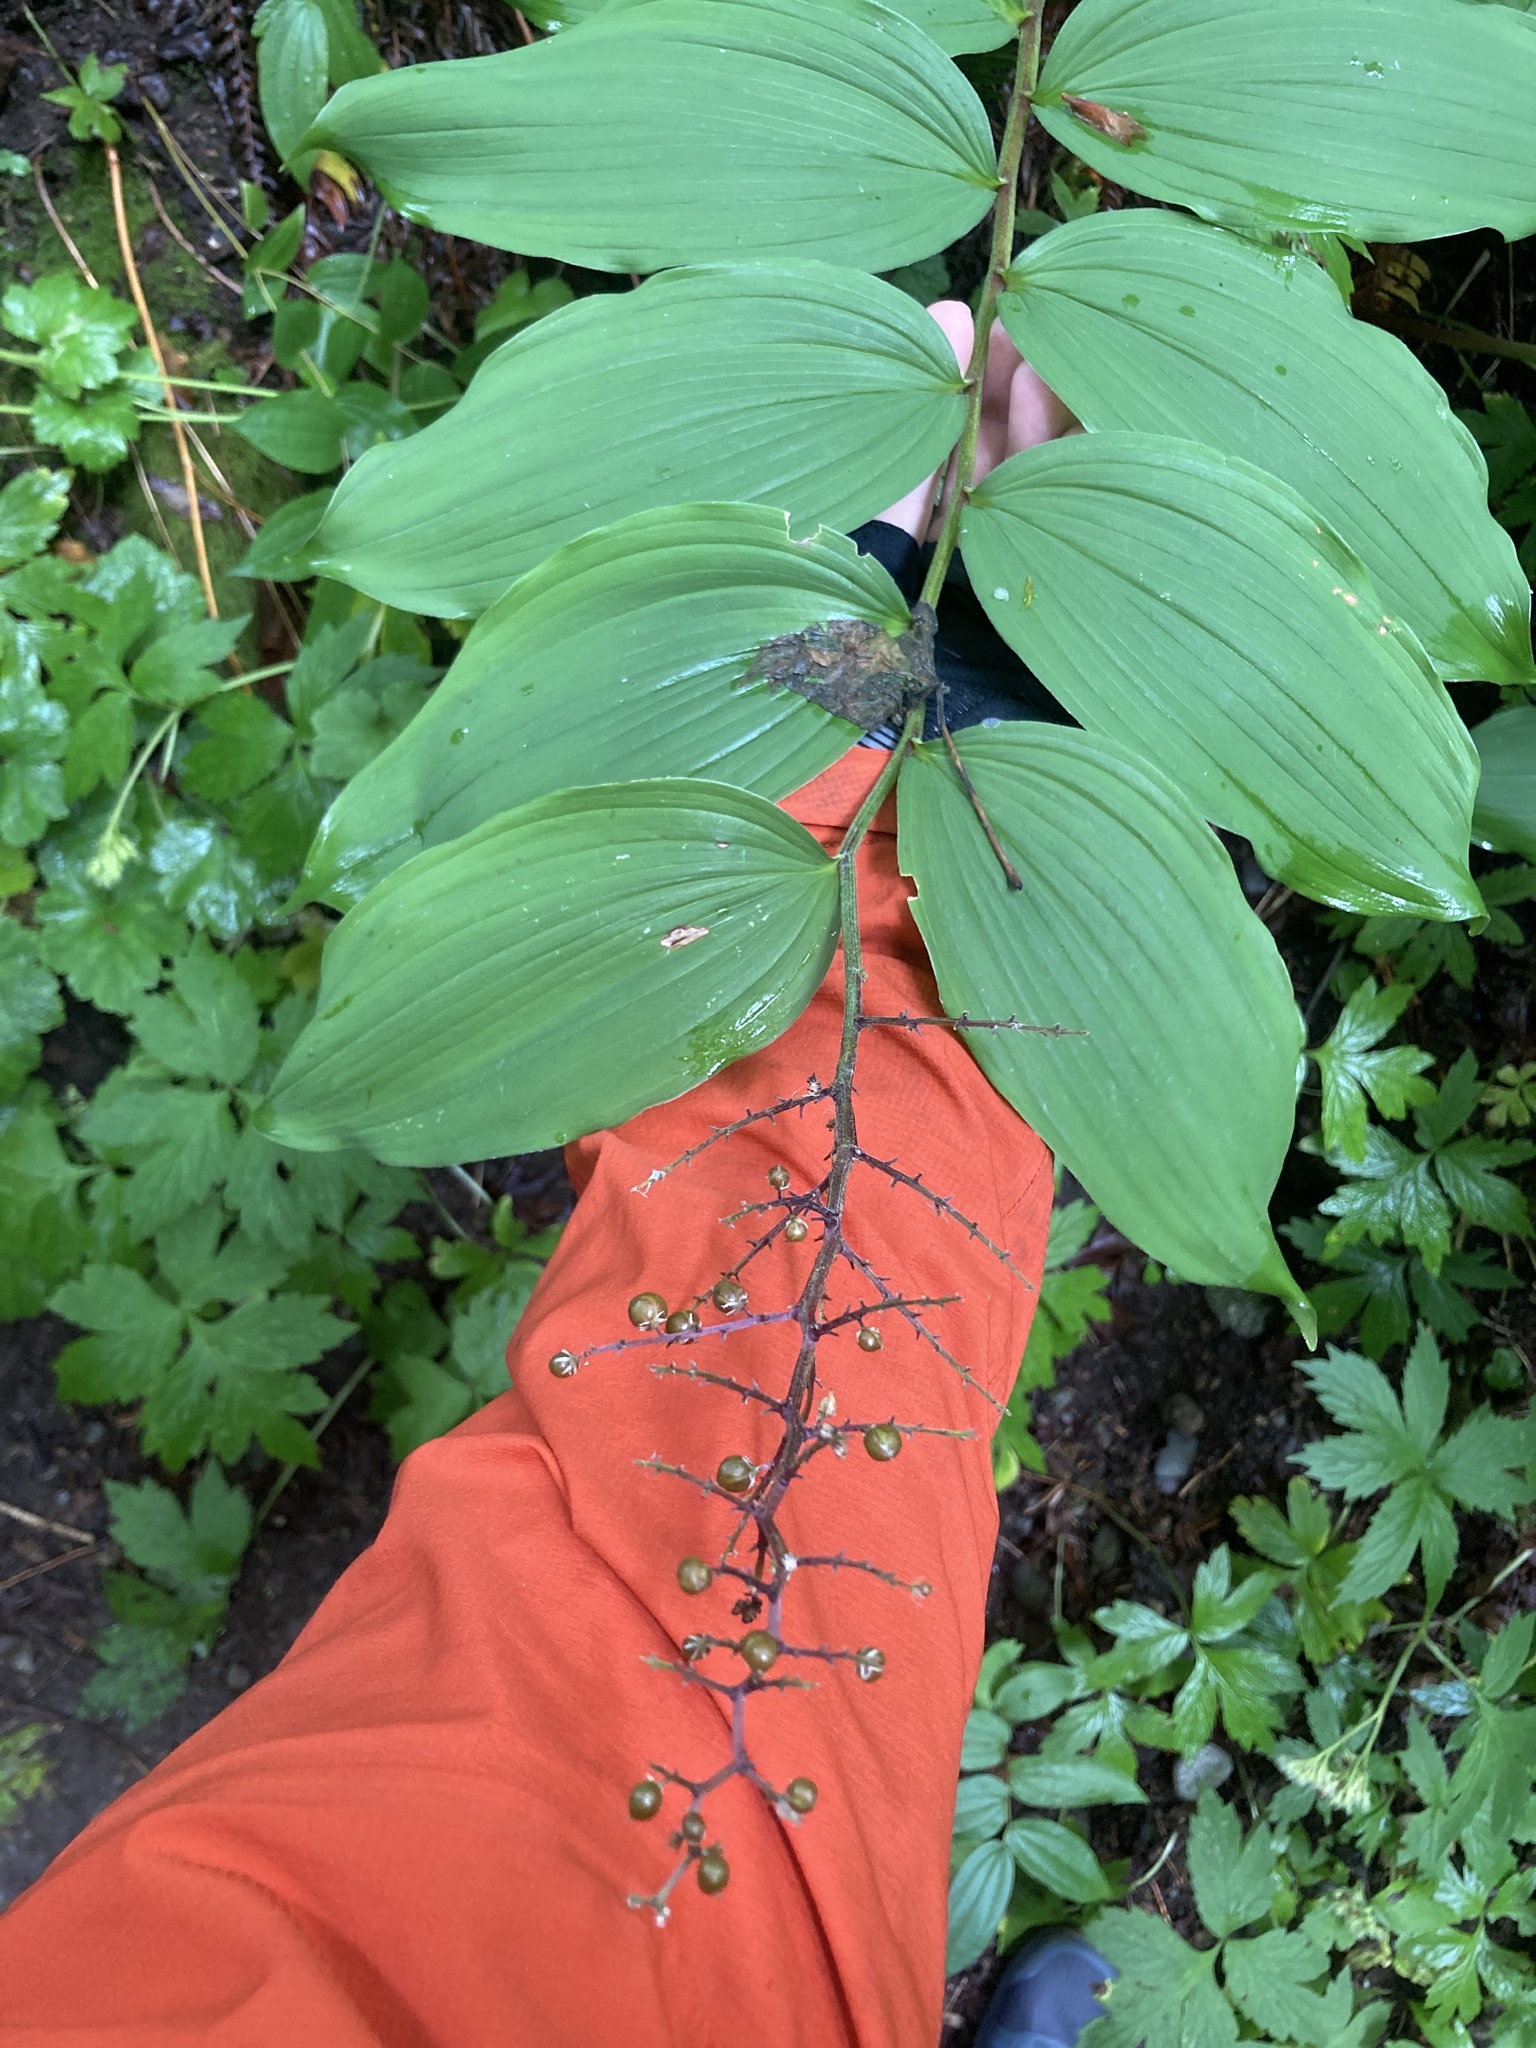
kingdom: Plantae
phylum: Tracheophyta
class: Liliopsida
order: Asparagales
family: Asparagaceae
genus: Maianthemum
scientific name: Maianthemum racemosum
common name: False spikenard
